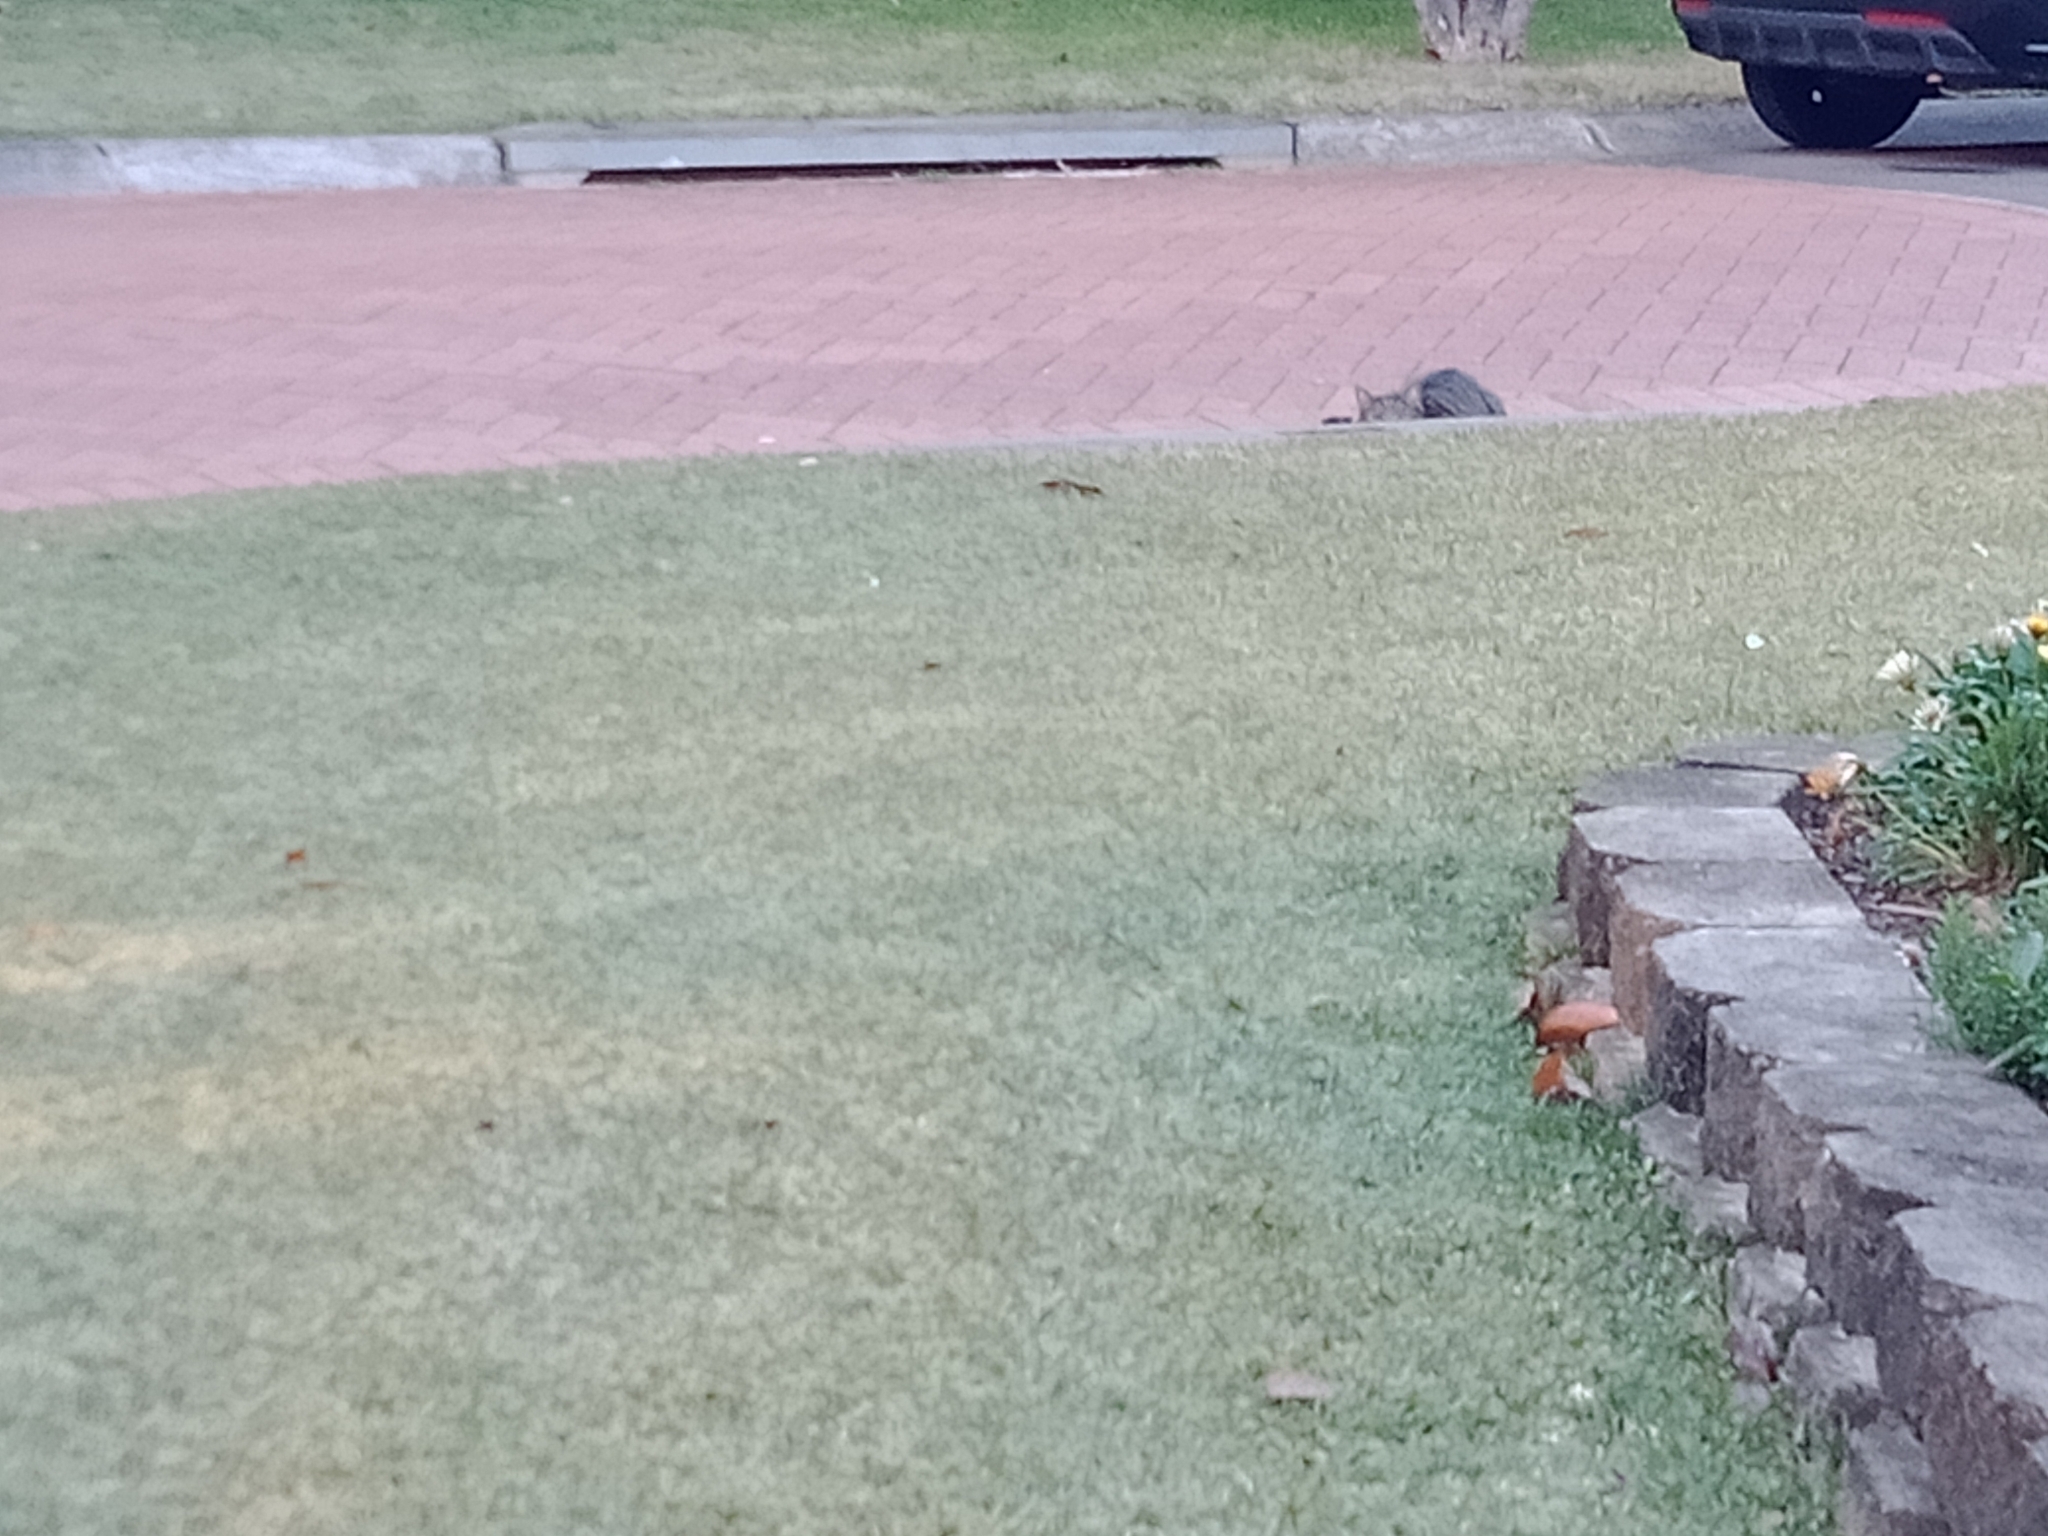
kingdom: Animalia
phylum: Chordata
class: Mammalia
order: Carnivora
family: Felidae
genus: Felis
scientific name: Felis catus
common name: Domestic cat
